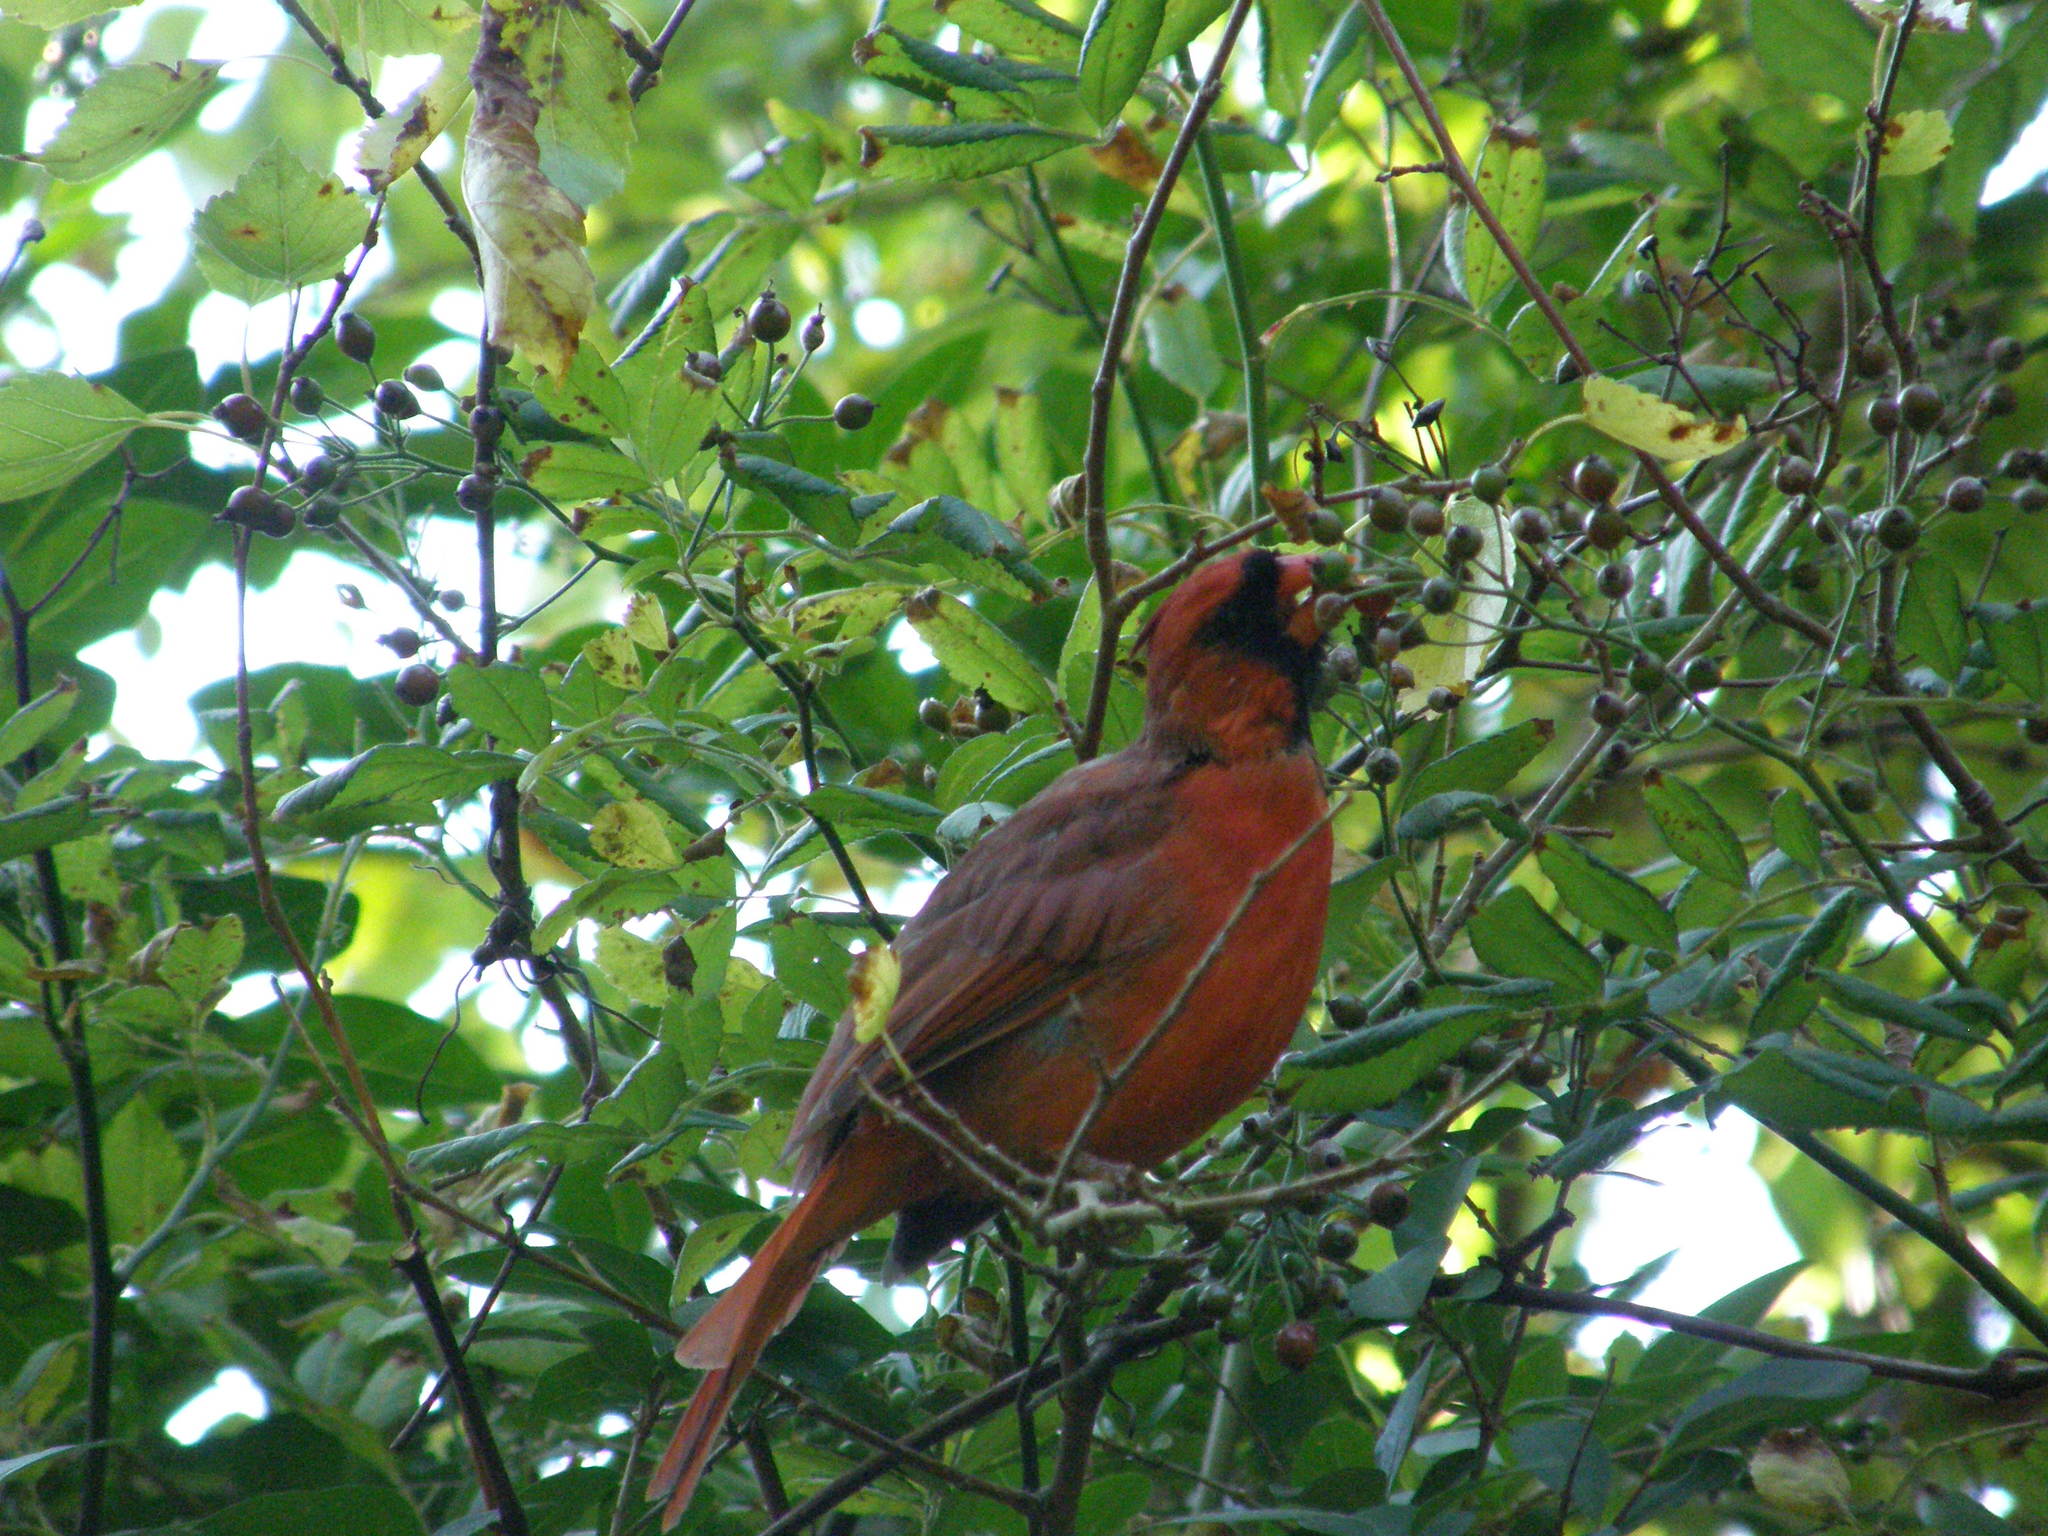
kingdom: Animalia
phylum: Chordata
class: Aves
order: Passeriformes
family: Cardinalidae
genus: Cardinalis
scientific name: Cardinalis cardinalis
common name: Northern cardinal
